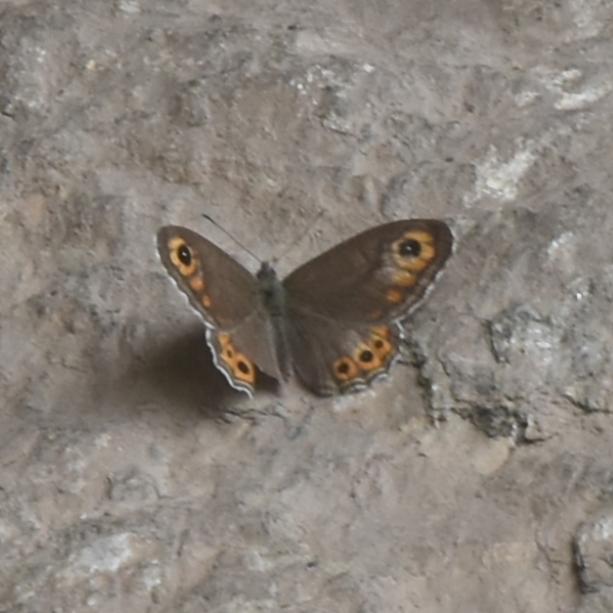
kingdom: Animalia
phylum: Arthropoda
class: Insecta
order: Lepidoptera
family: Nymphalidae
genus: Pararge
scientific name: Pararge Lasiommata schakra
